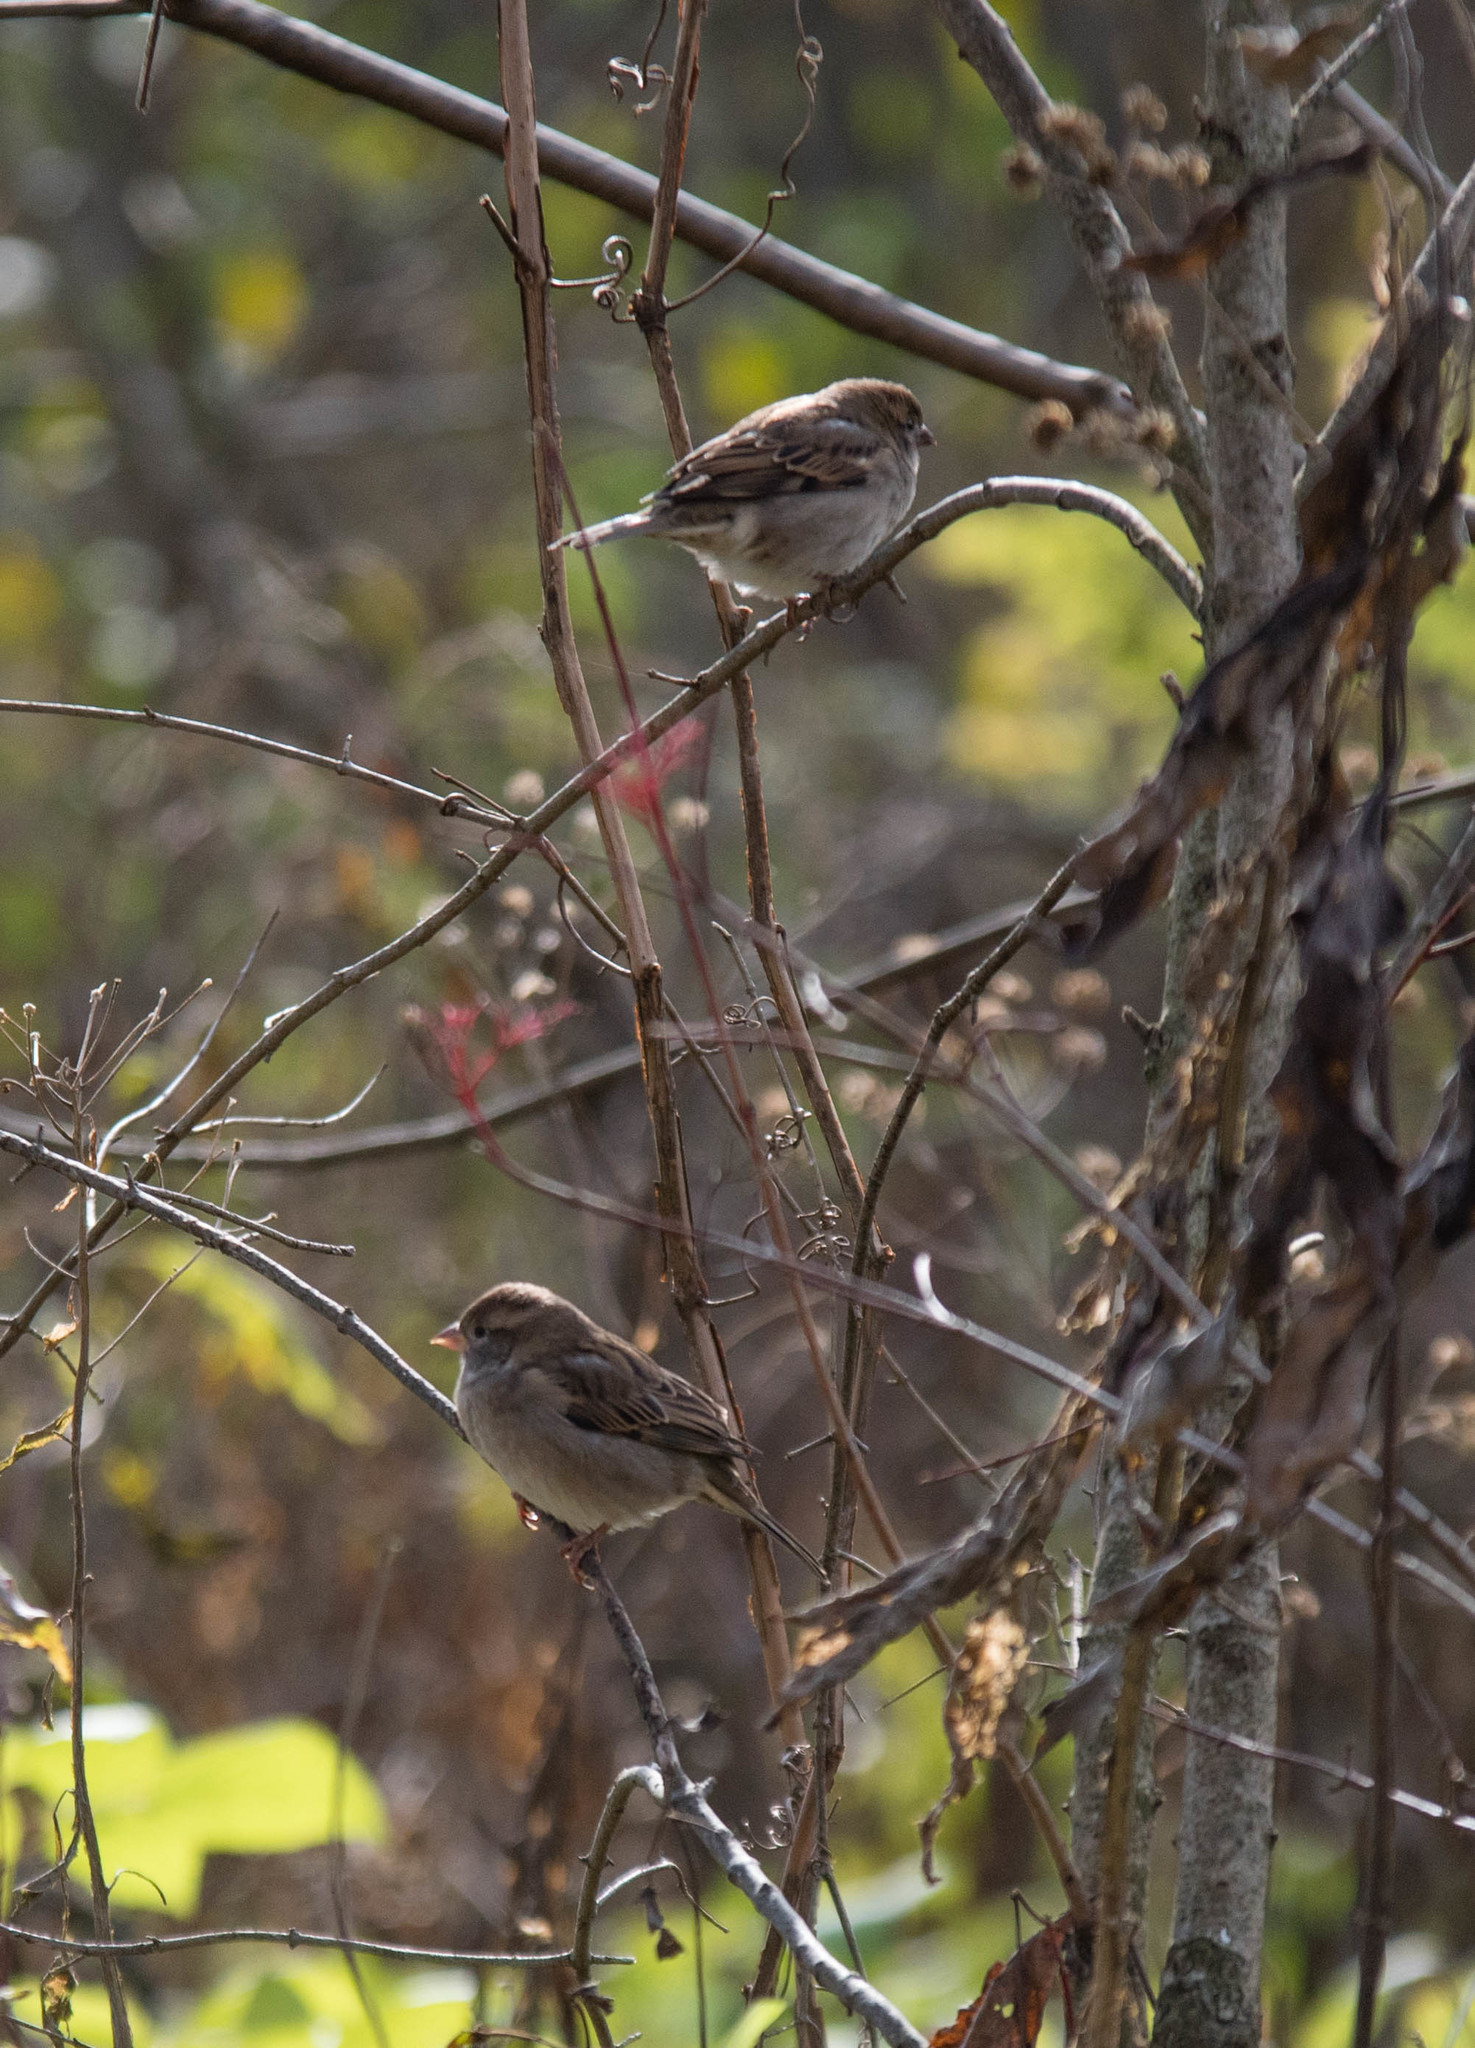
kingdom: Animalia
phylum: Chordata
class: Aves
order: Passeriformes
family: Passeridae
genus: Passer
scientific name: Passer domesticus
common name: House sparrow
